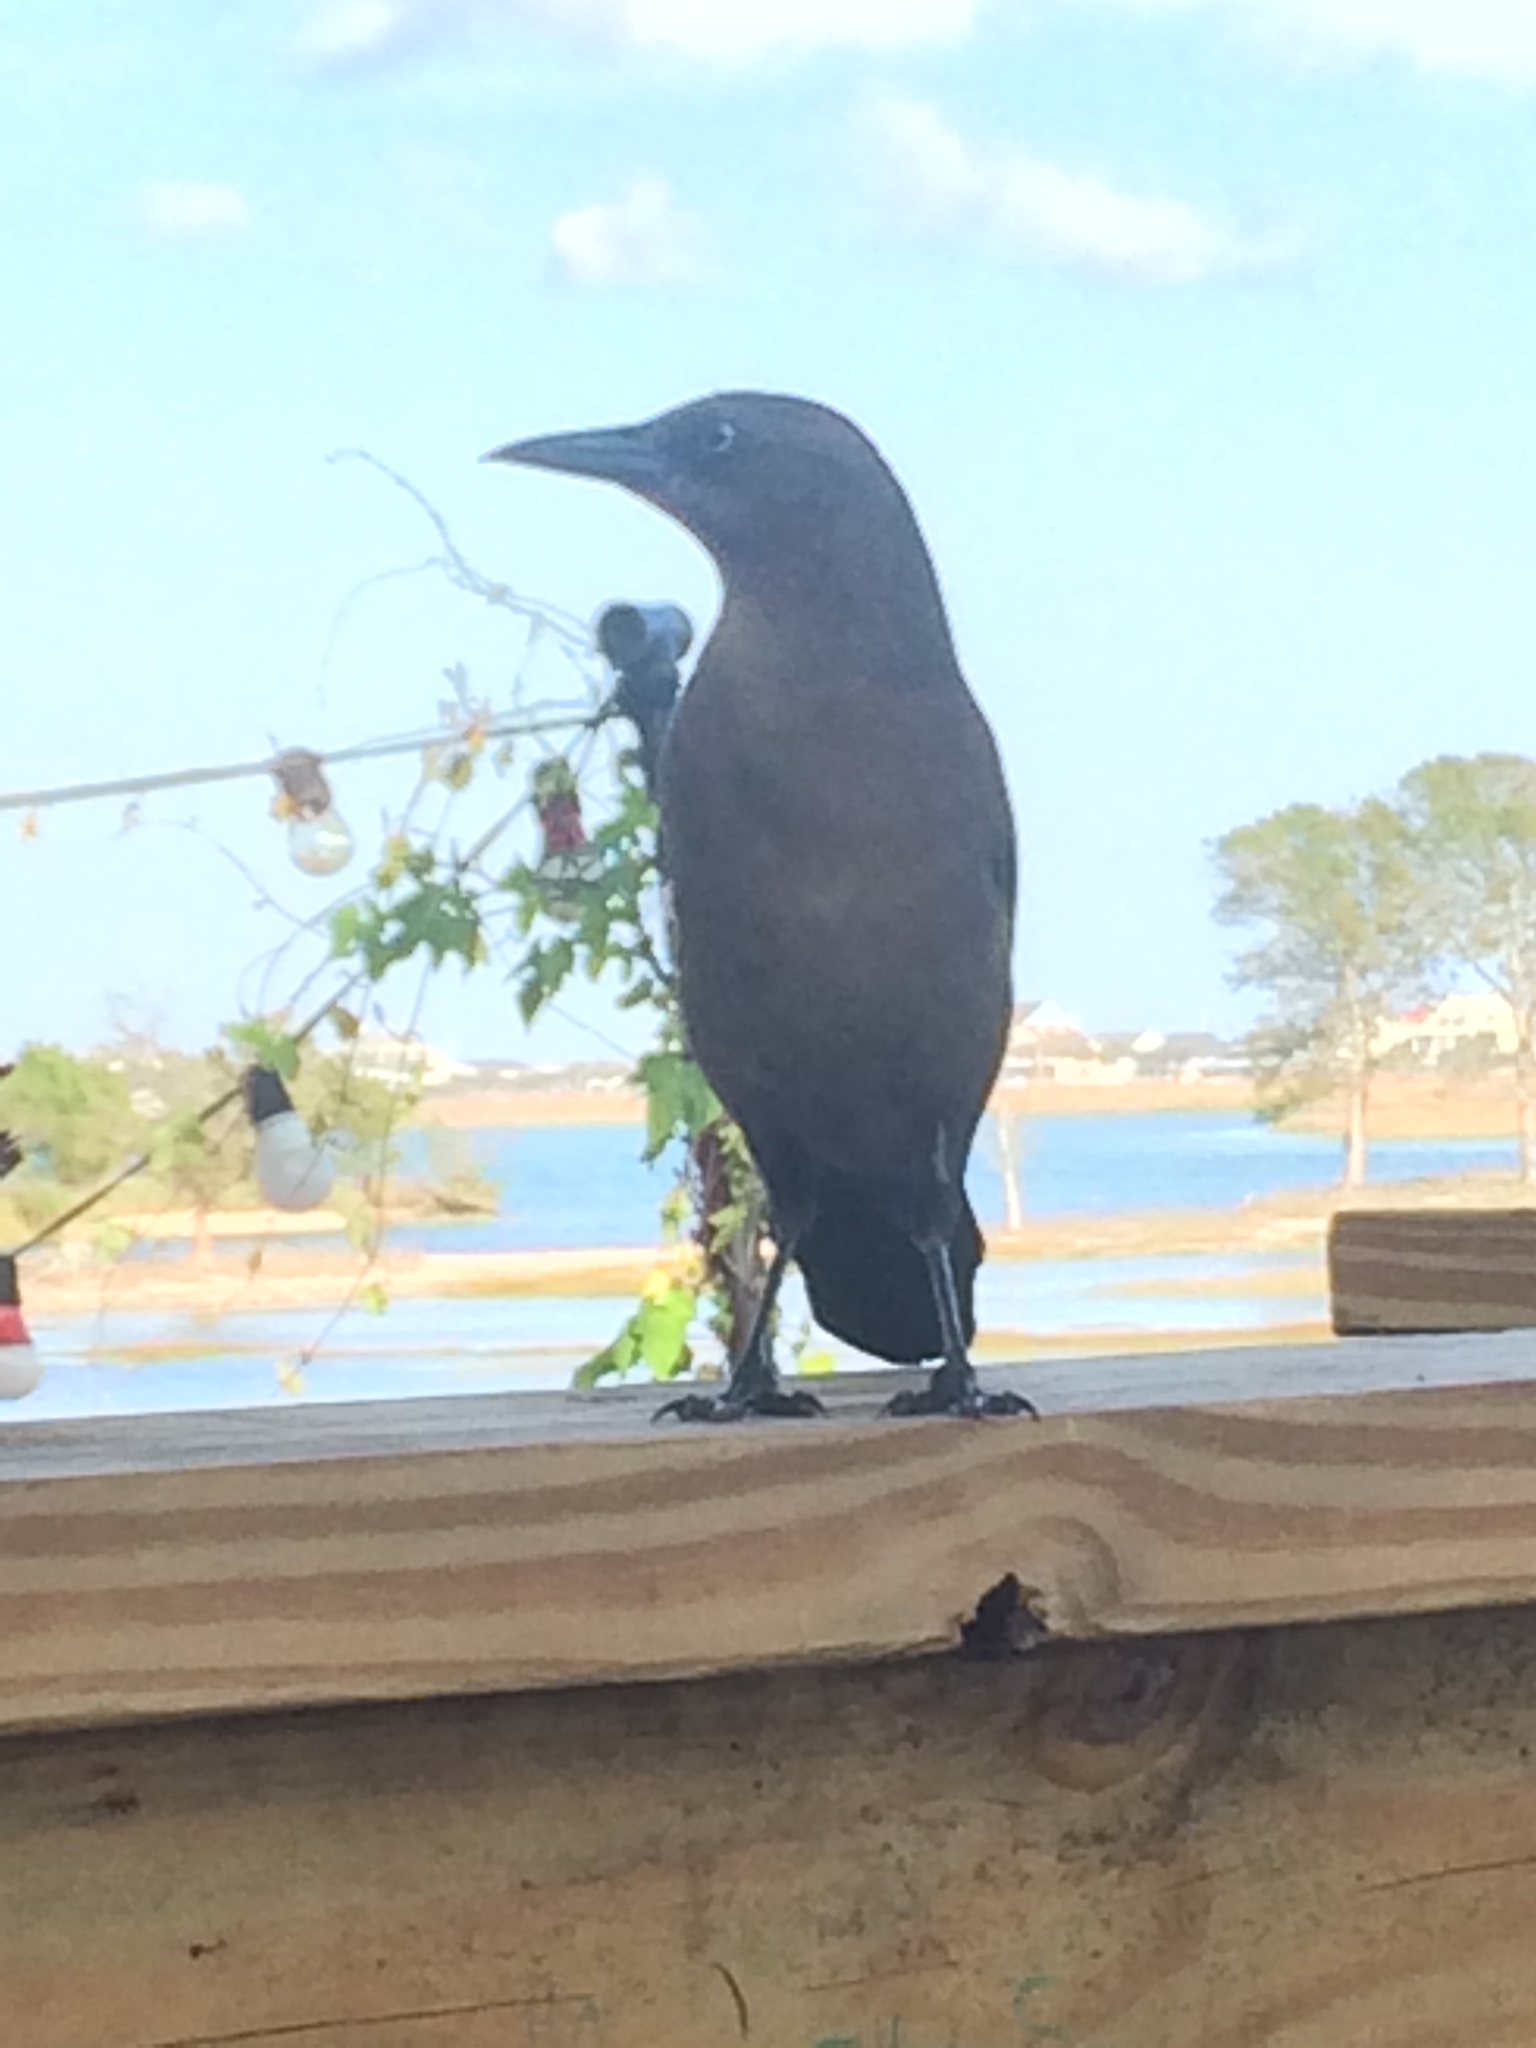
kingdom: Animalia
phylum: Chordata
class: Aves
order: Passeriformes
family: Icteridae
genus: Quiscalus
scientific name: Quiscalus major
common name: Boat-tailed grackle
